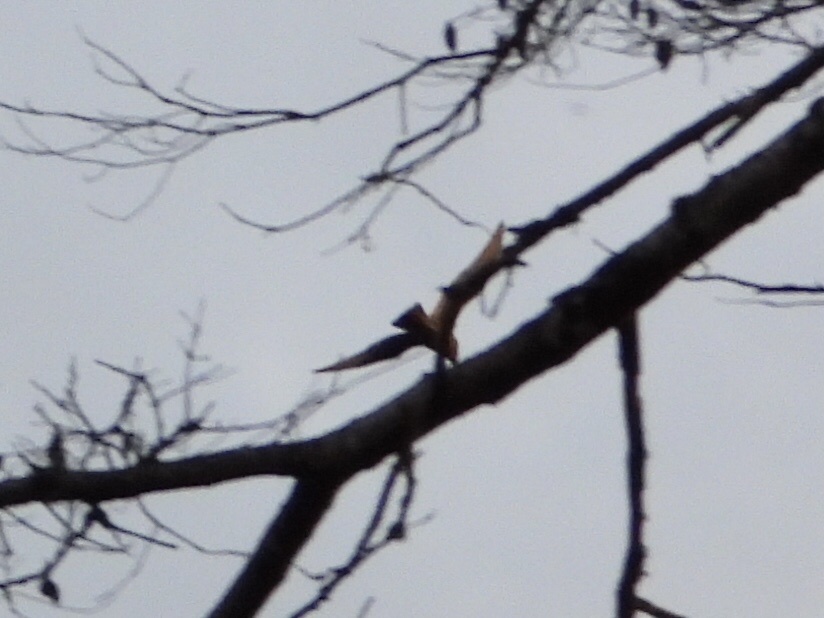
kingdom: Animalia
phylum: Chordata
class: Aves
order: Charadriiformes
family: Laridae
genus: Larus
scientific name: Larus
